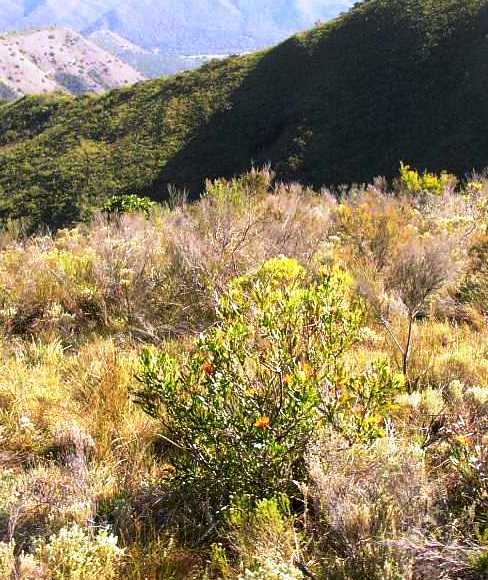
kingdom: Plantae
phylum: Tracheophyta
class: Magnoliopsida
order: Proteales
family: Proteaceae
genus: Leucospermum
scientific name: Leucospermum cuneiforme
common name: Common pincushion
